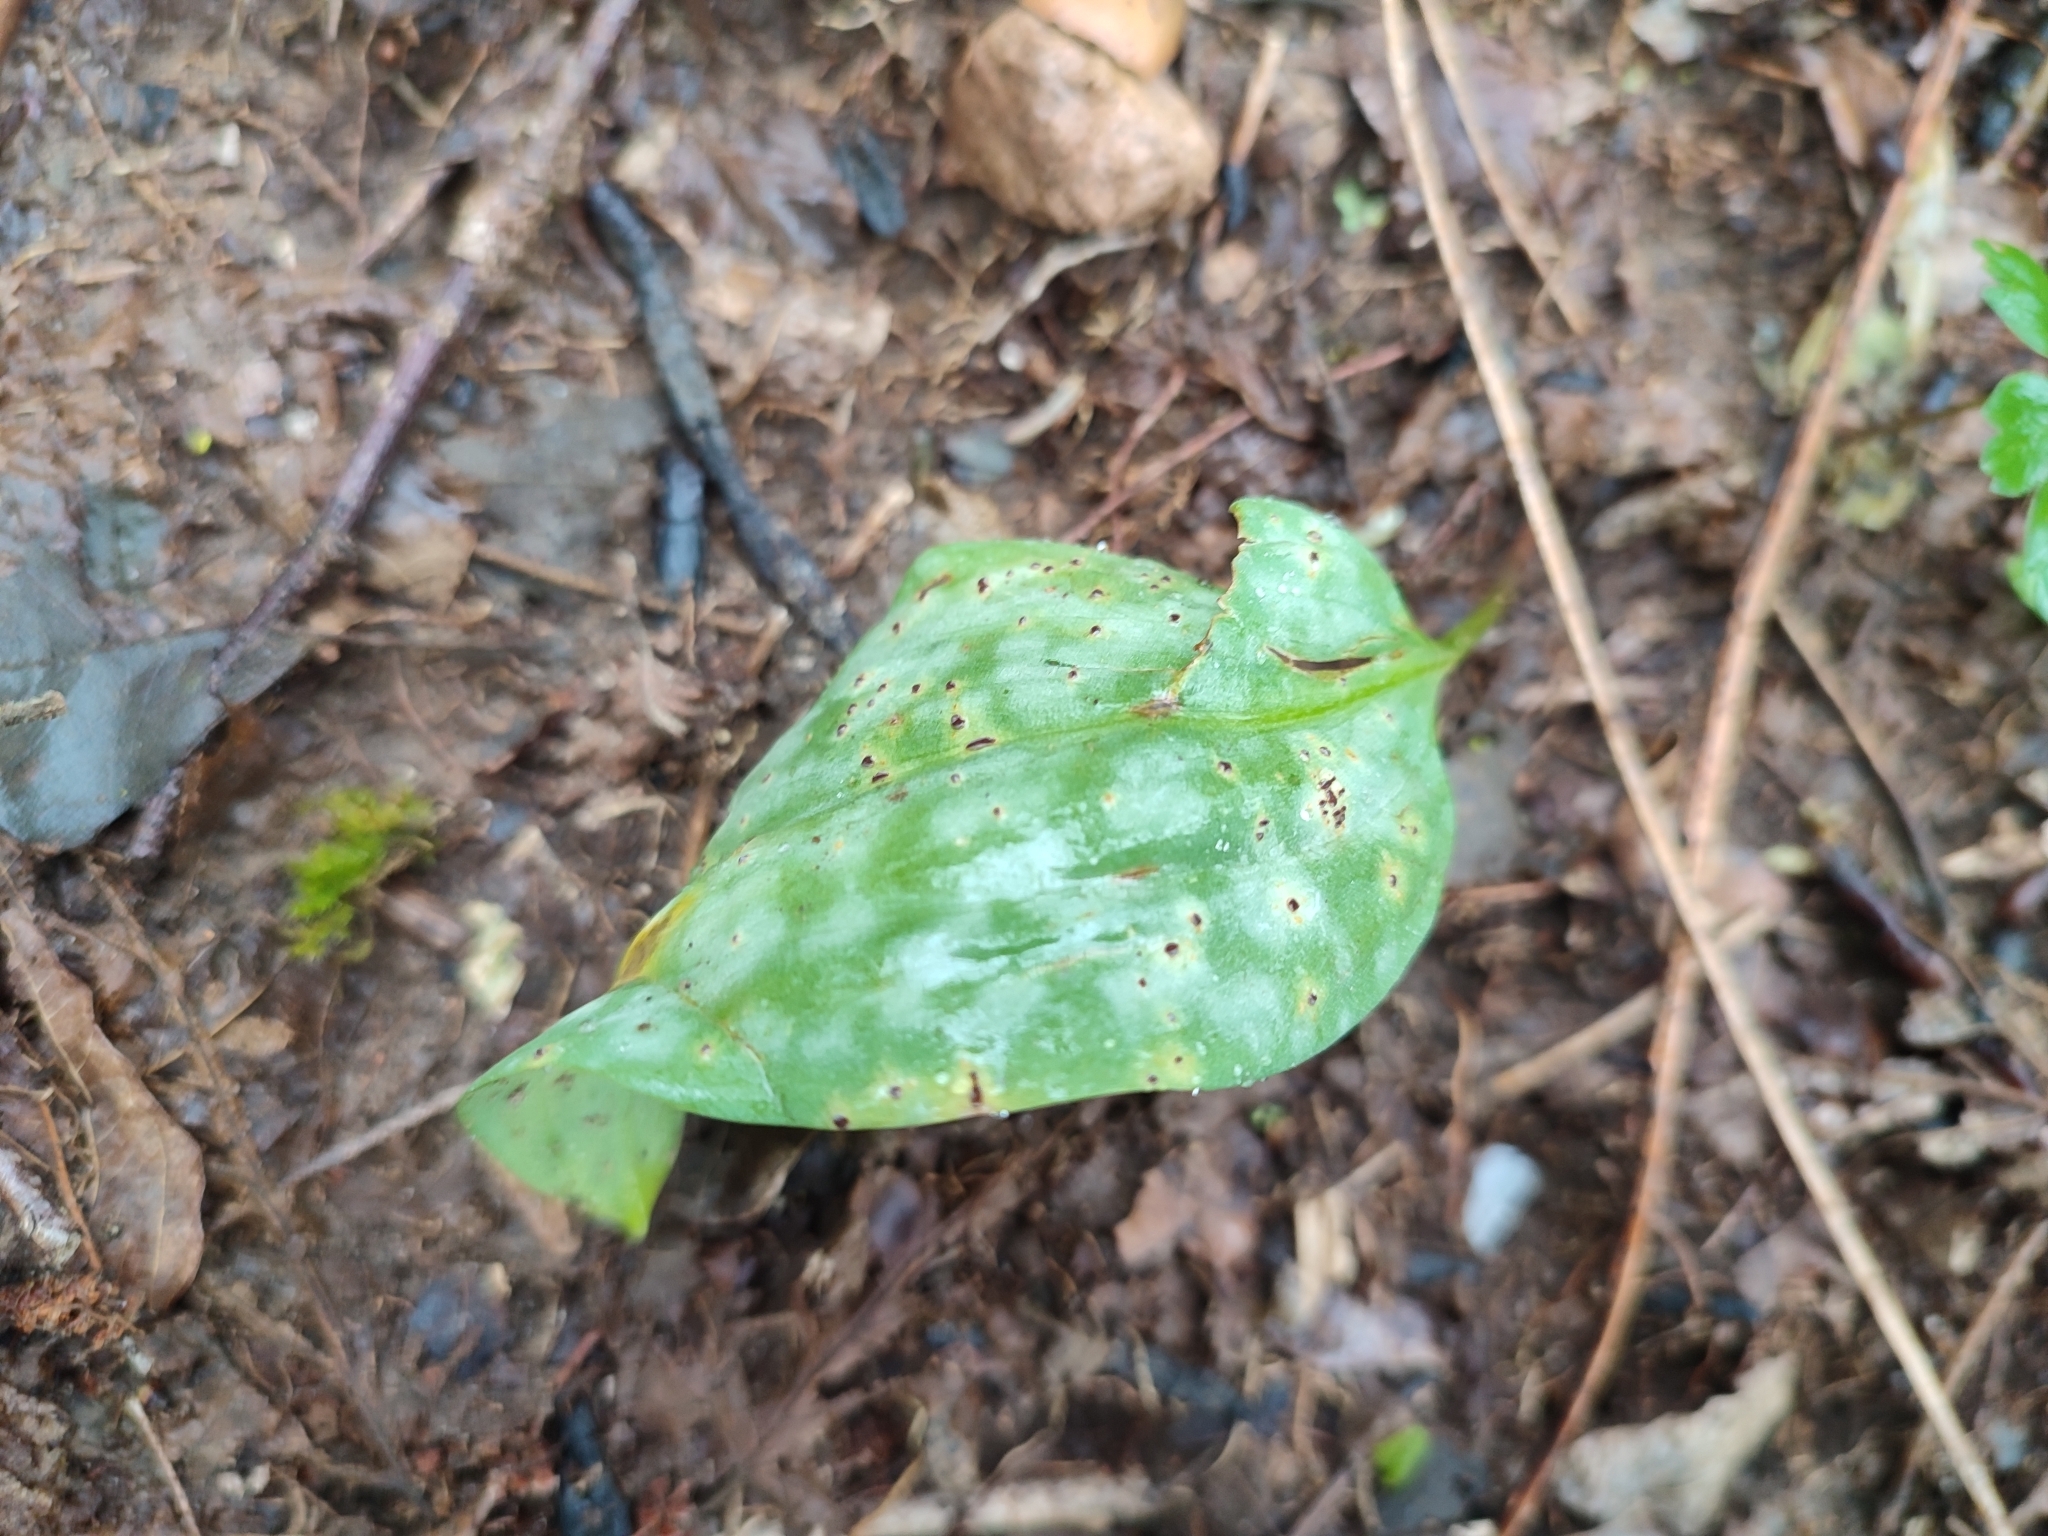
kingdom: Plantae
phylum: Tracheophyta
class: Liliopsida
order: Liliales
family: Liliaceae
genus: Erythronium
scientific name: Erythronium dens-canis
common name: Dog's-tooth-violet
